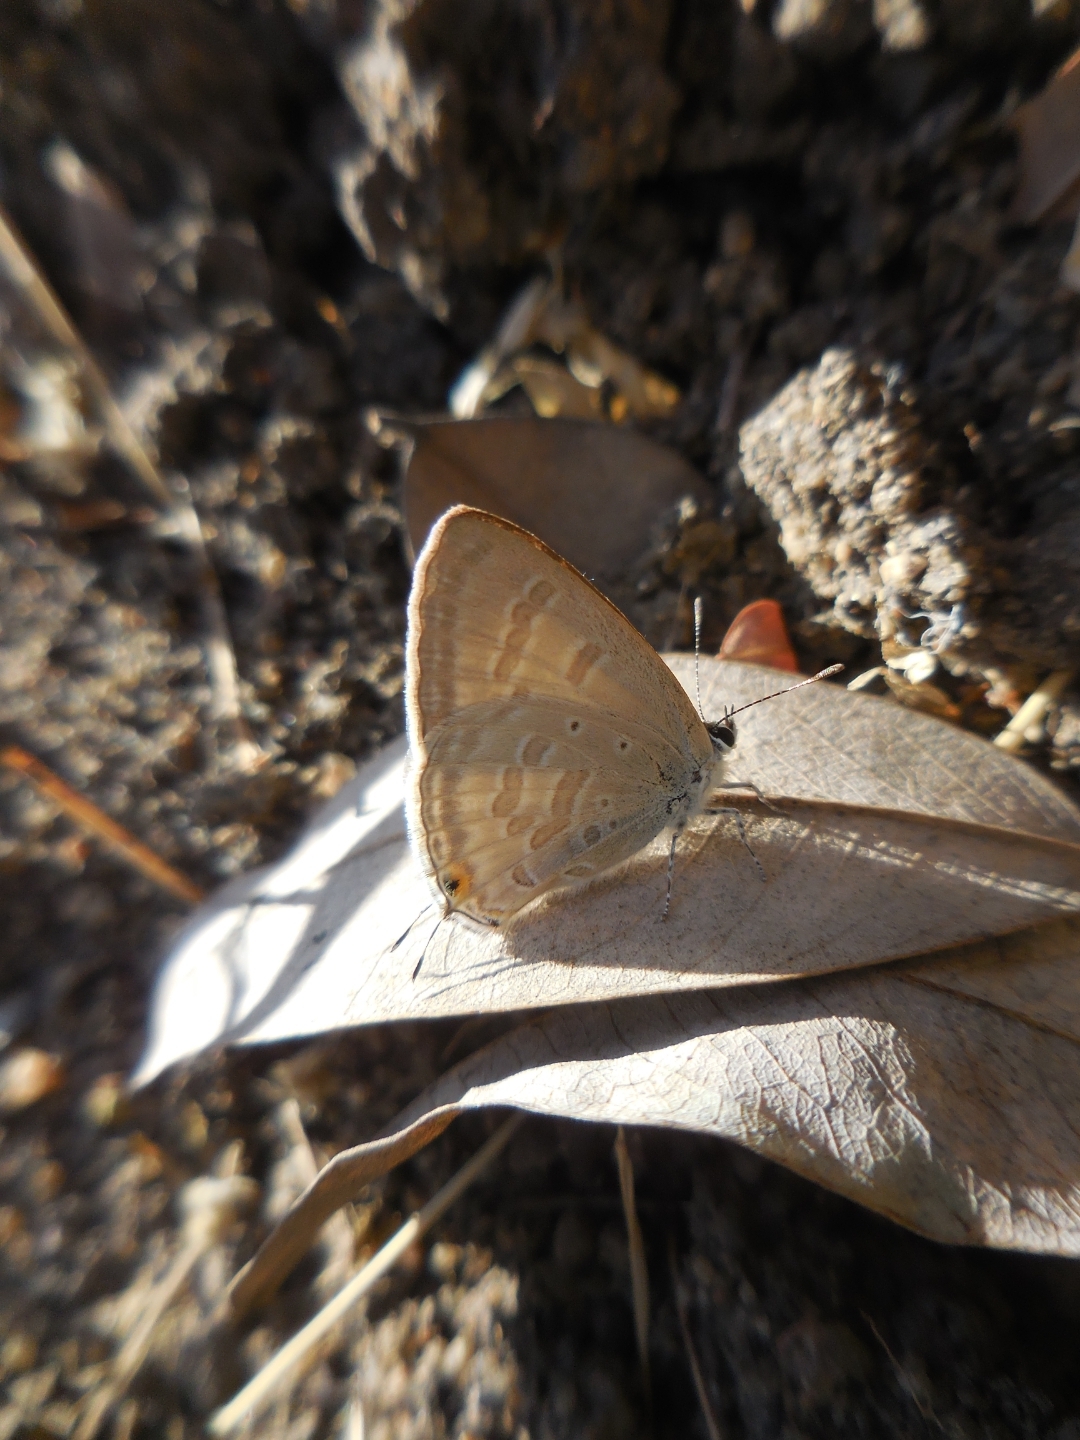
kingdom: Animalia
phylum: Arthropoda
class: Insecta
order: Lepidoptera
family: Lycaenidae
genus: Catochrysops
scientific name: Catochrysops strabo
